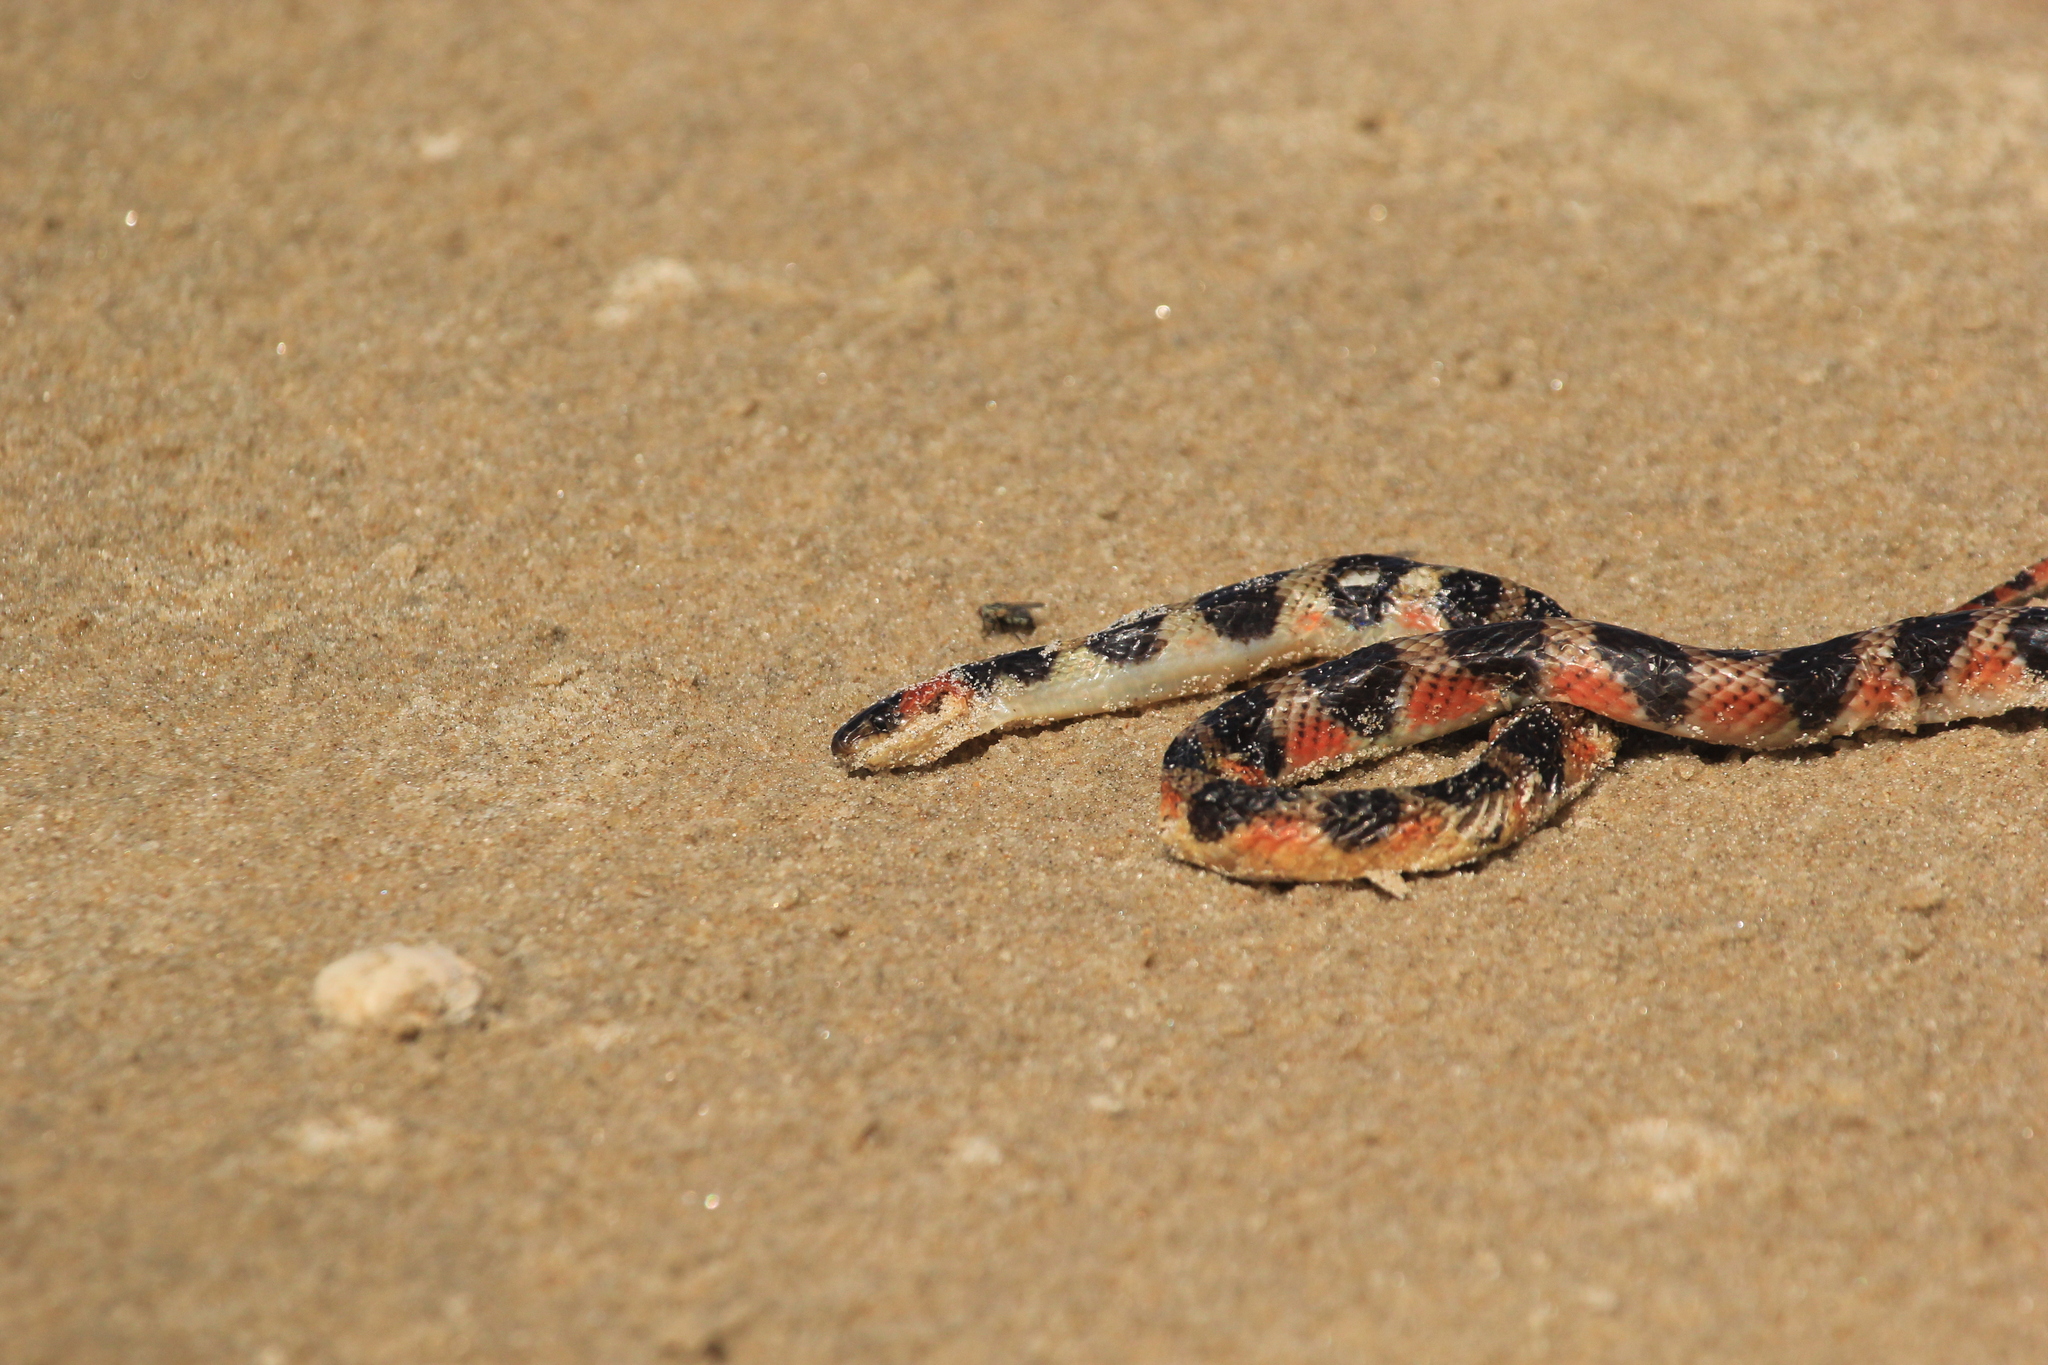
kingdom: Animalia
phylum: Chordata
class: Squamata
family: Colubridae
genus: Oxyrhopus
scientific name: Oxyrhopus rhombifer
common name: Amazon false coral snake
